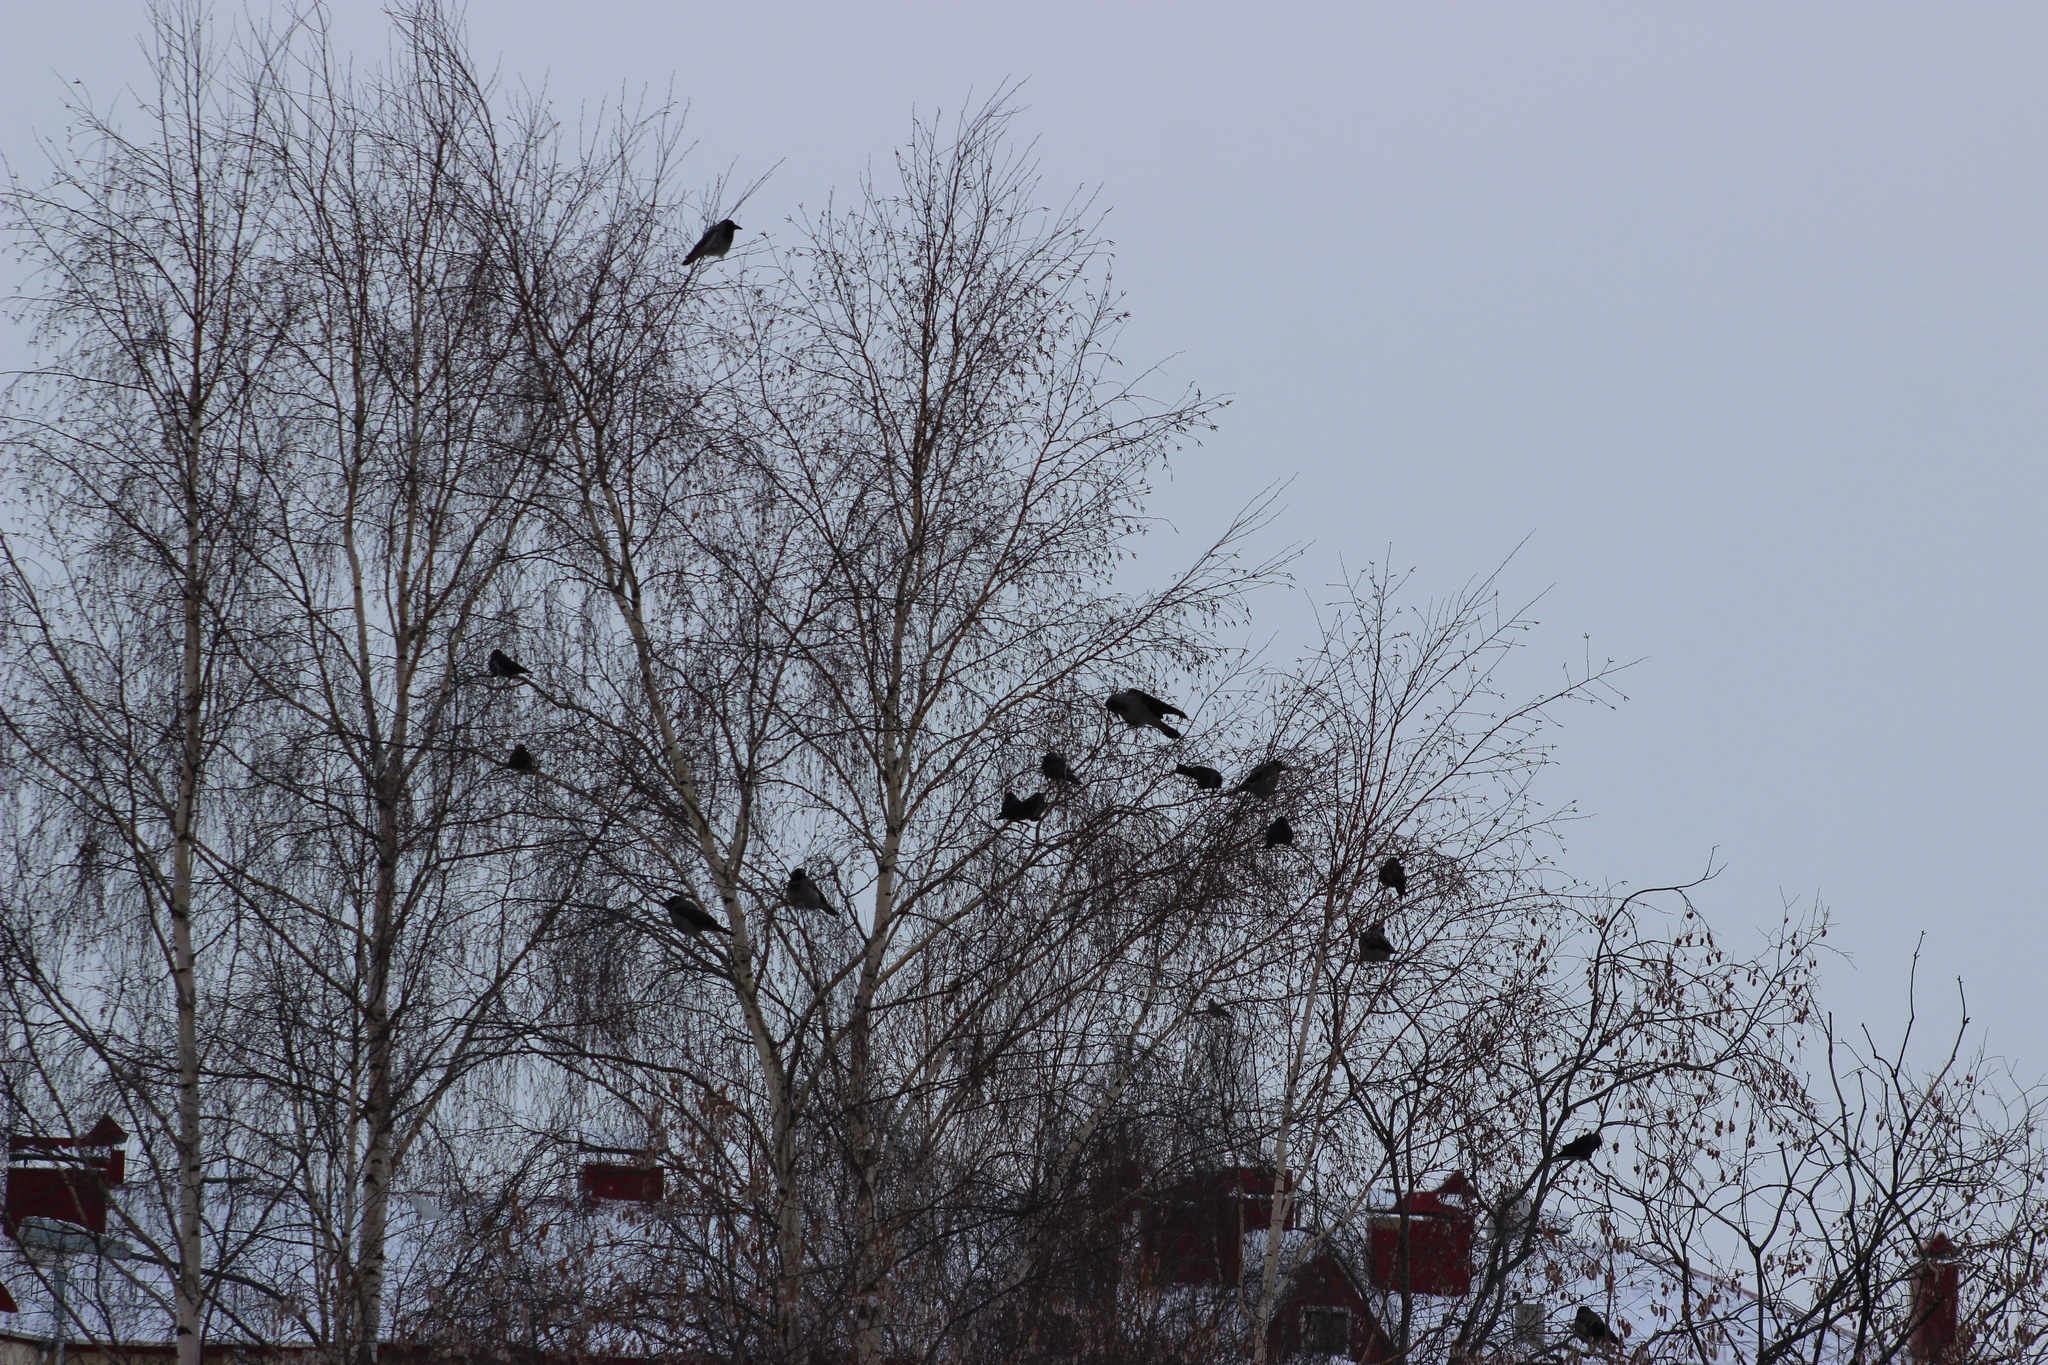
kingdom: Animalia
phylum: Chordata
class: Aves
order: Passeriformes
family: Corvidae
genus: Corvus
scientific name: Corvus cornix
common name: Hooded crow
